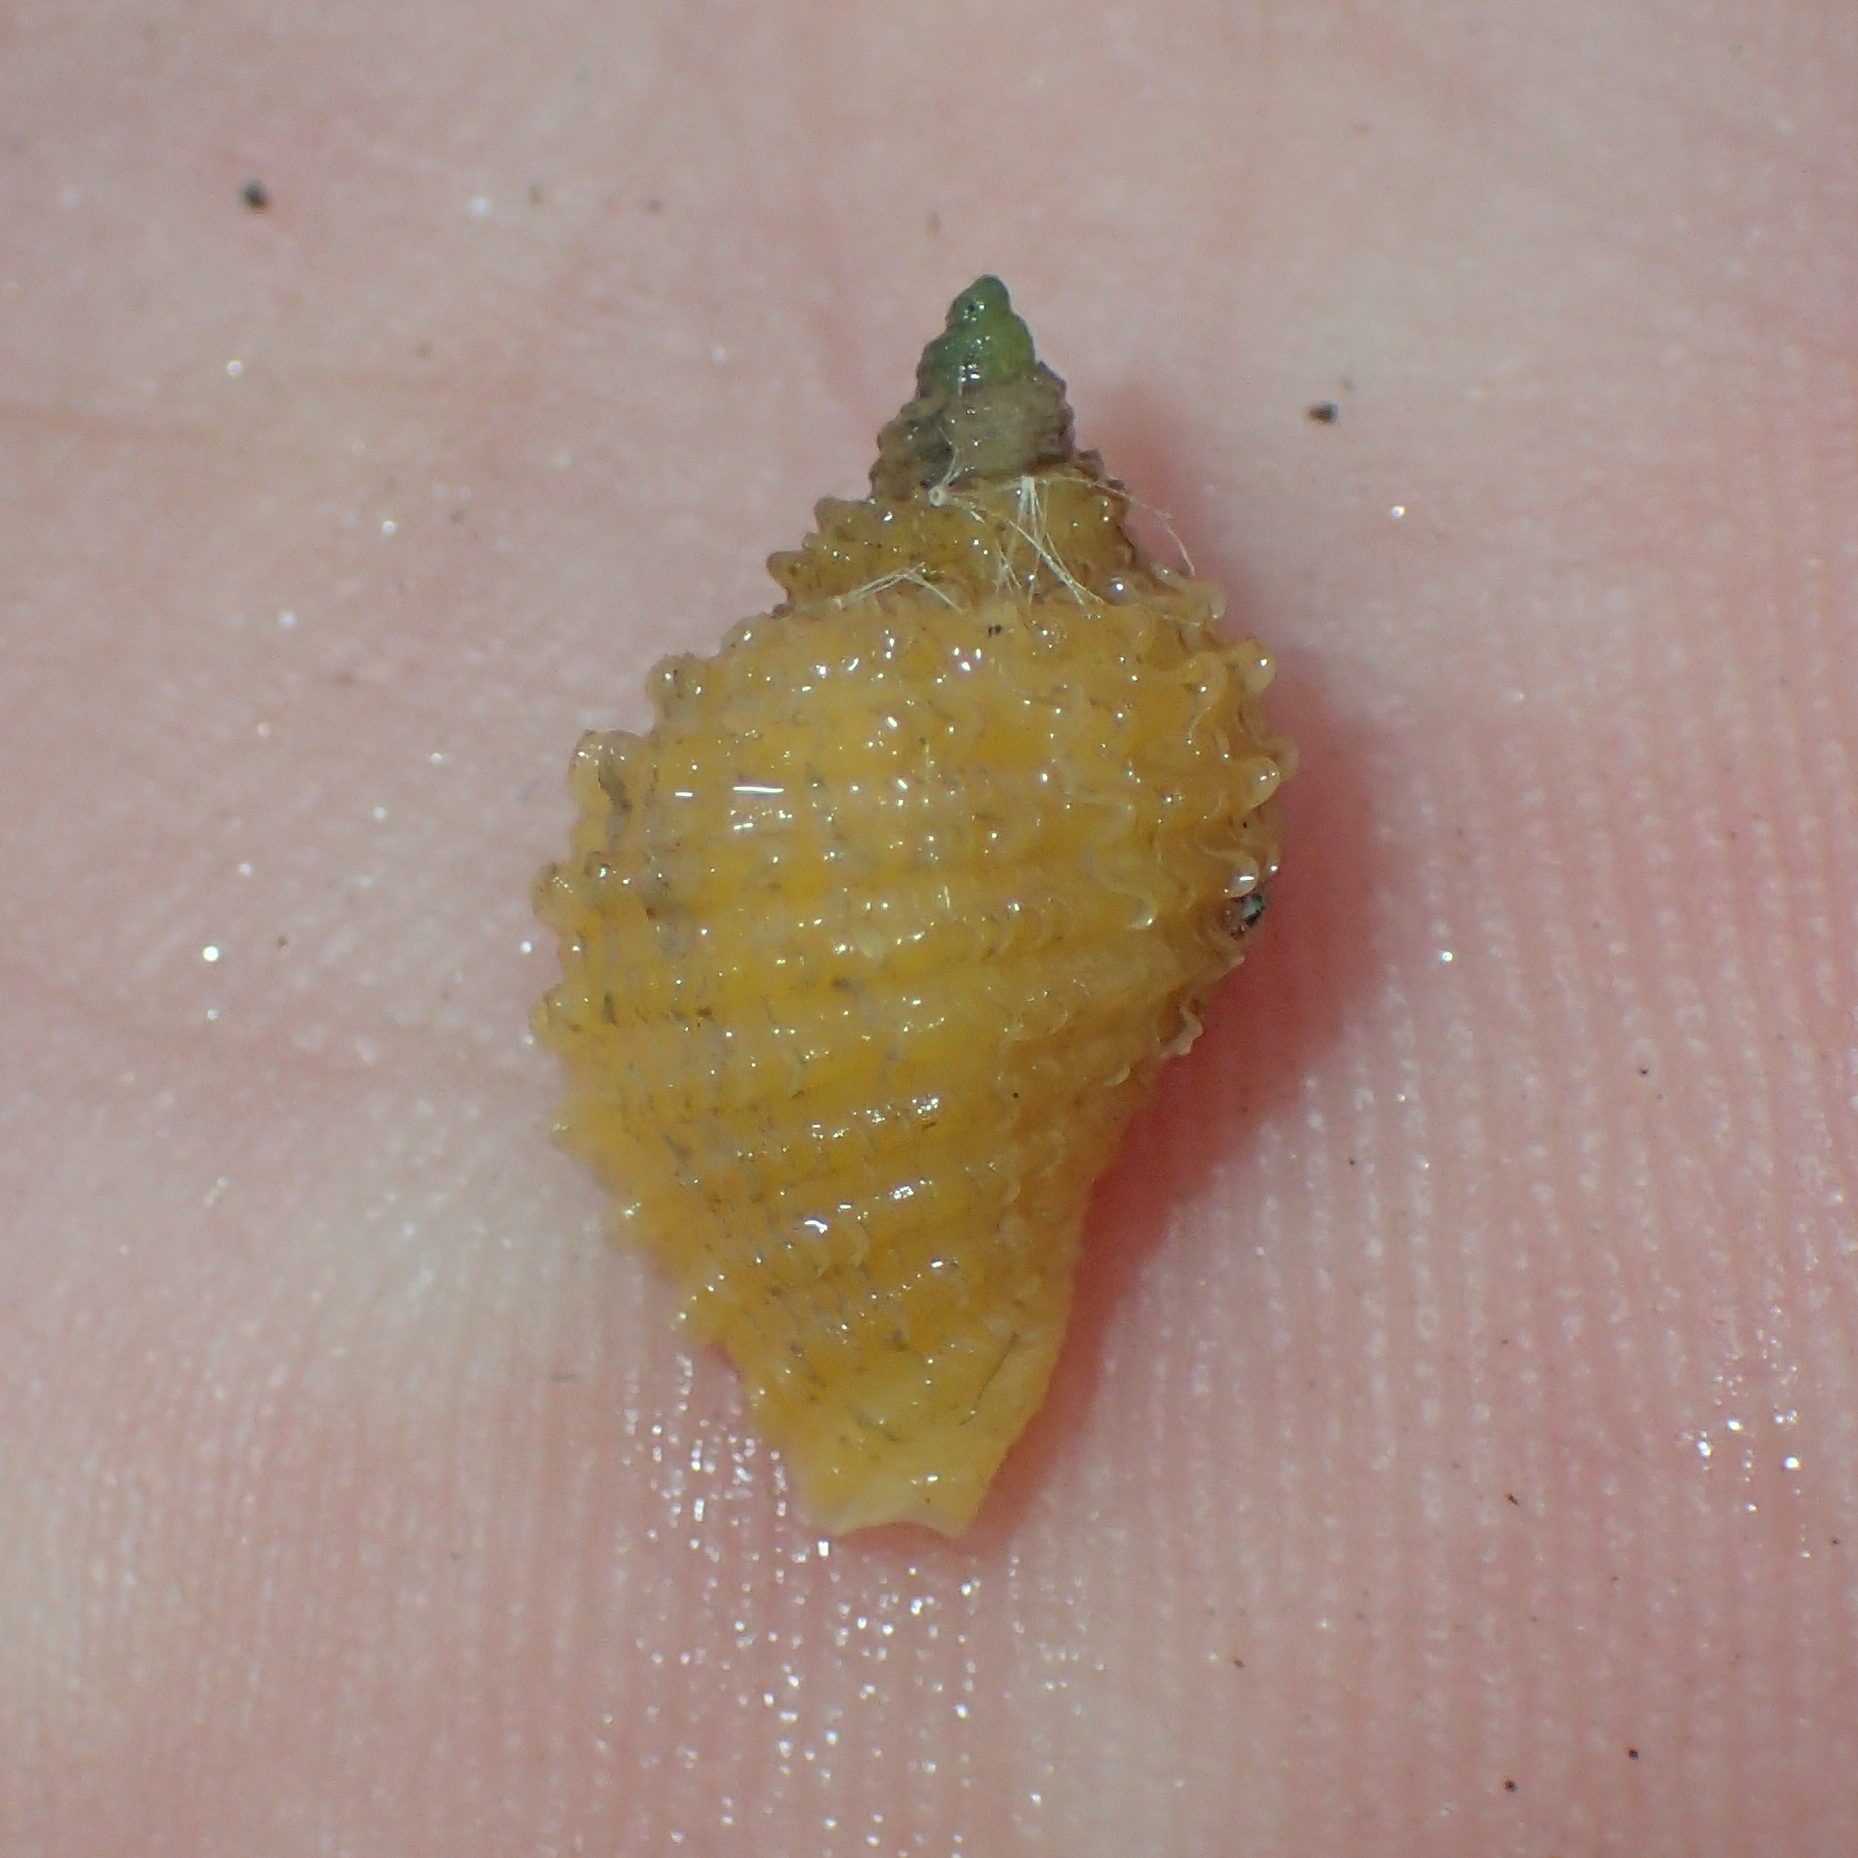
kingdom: Animalia
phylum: Mollusca
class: Gastropoda
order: Neogastropoda
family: Muricidae
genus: Nucella
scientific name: Nucella lapillus
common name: Dog whelk
